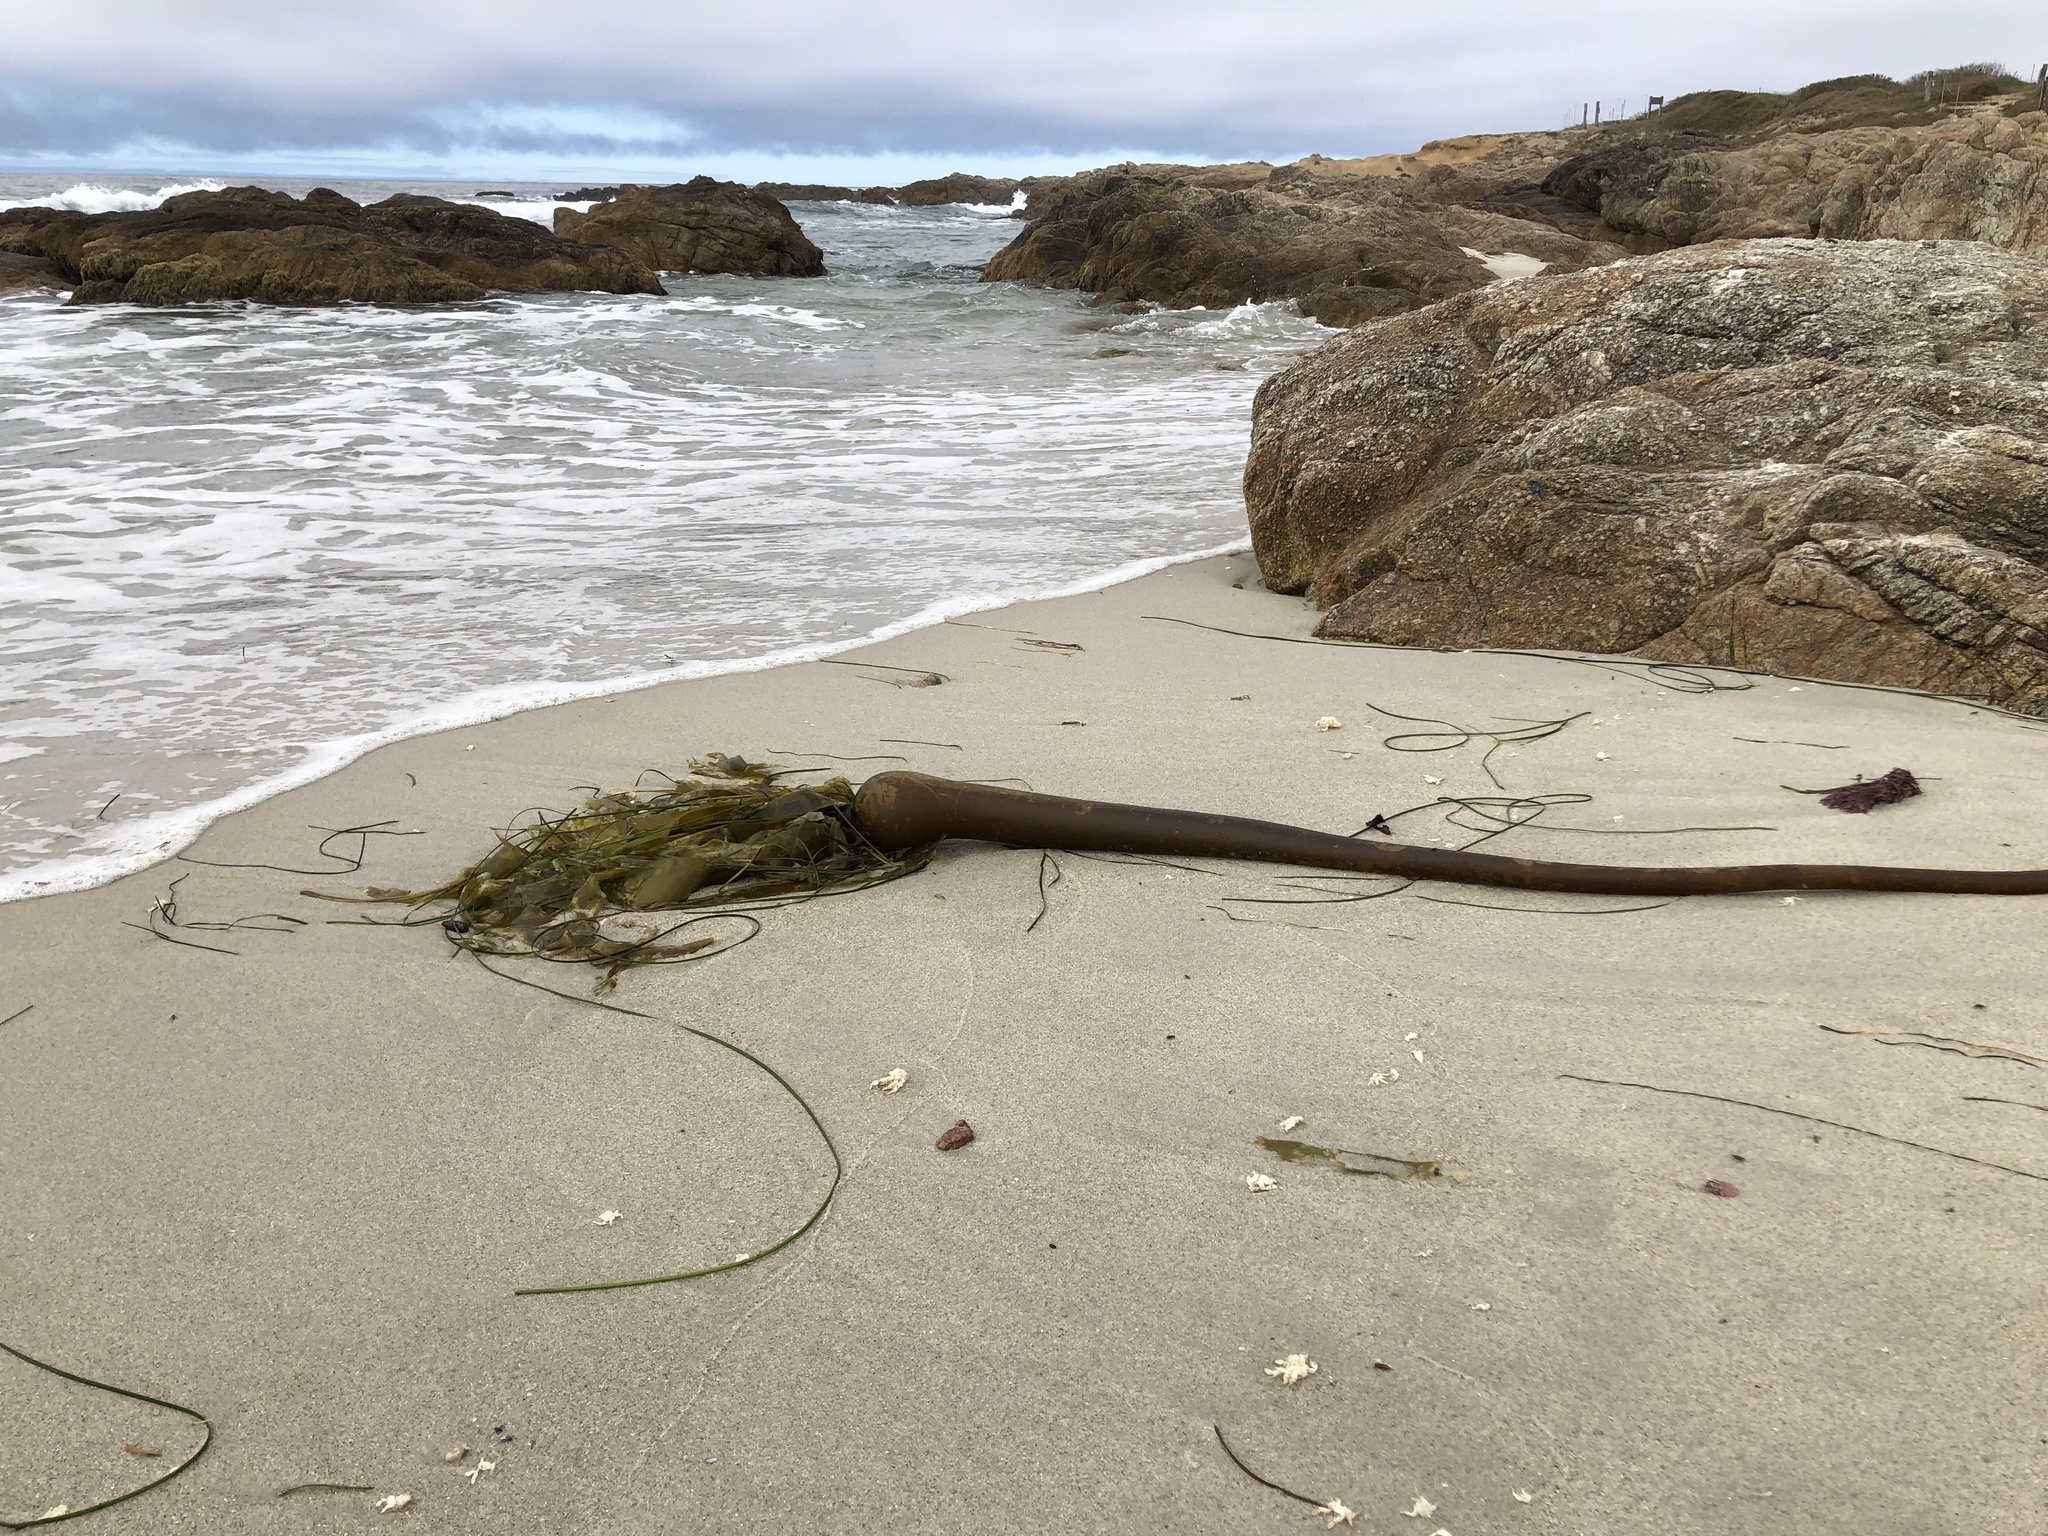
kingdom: Chromista
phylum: Ochrophyta
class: Phaeophyceae
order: Laminariales
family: Laminariaceae
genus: Nereocystis
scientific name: Nereocystis luetkeana
